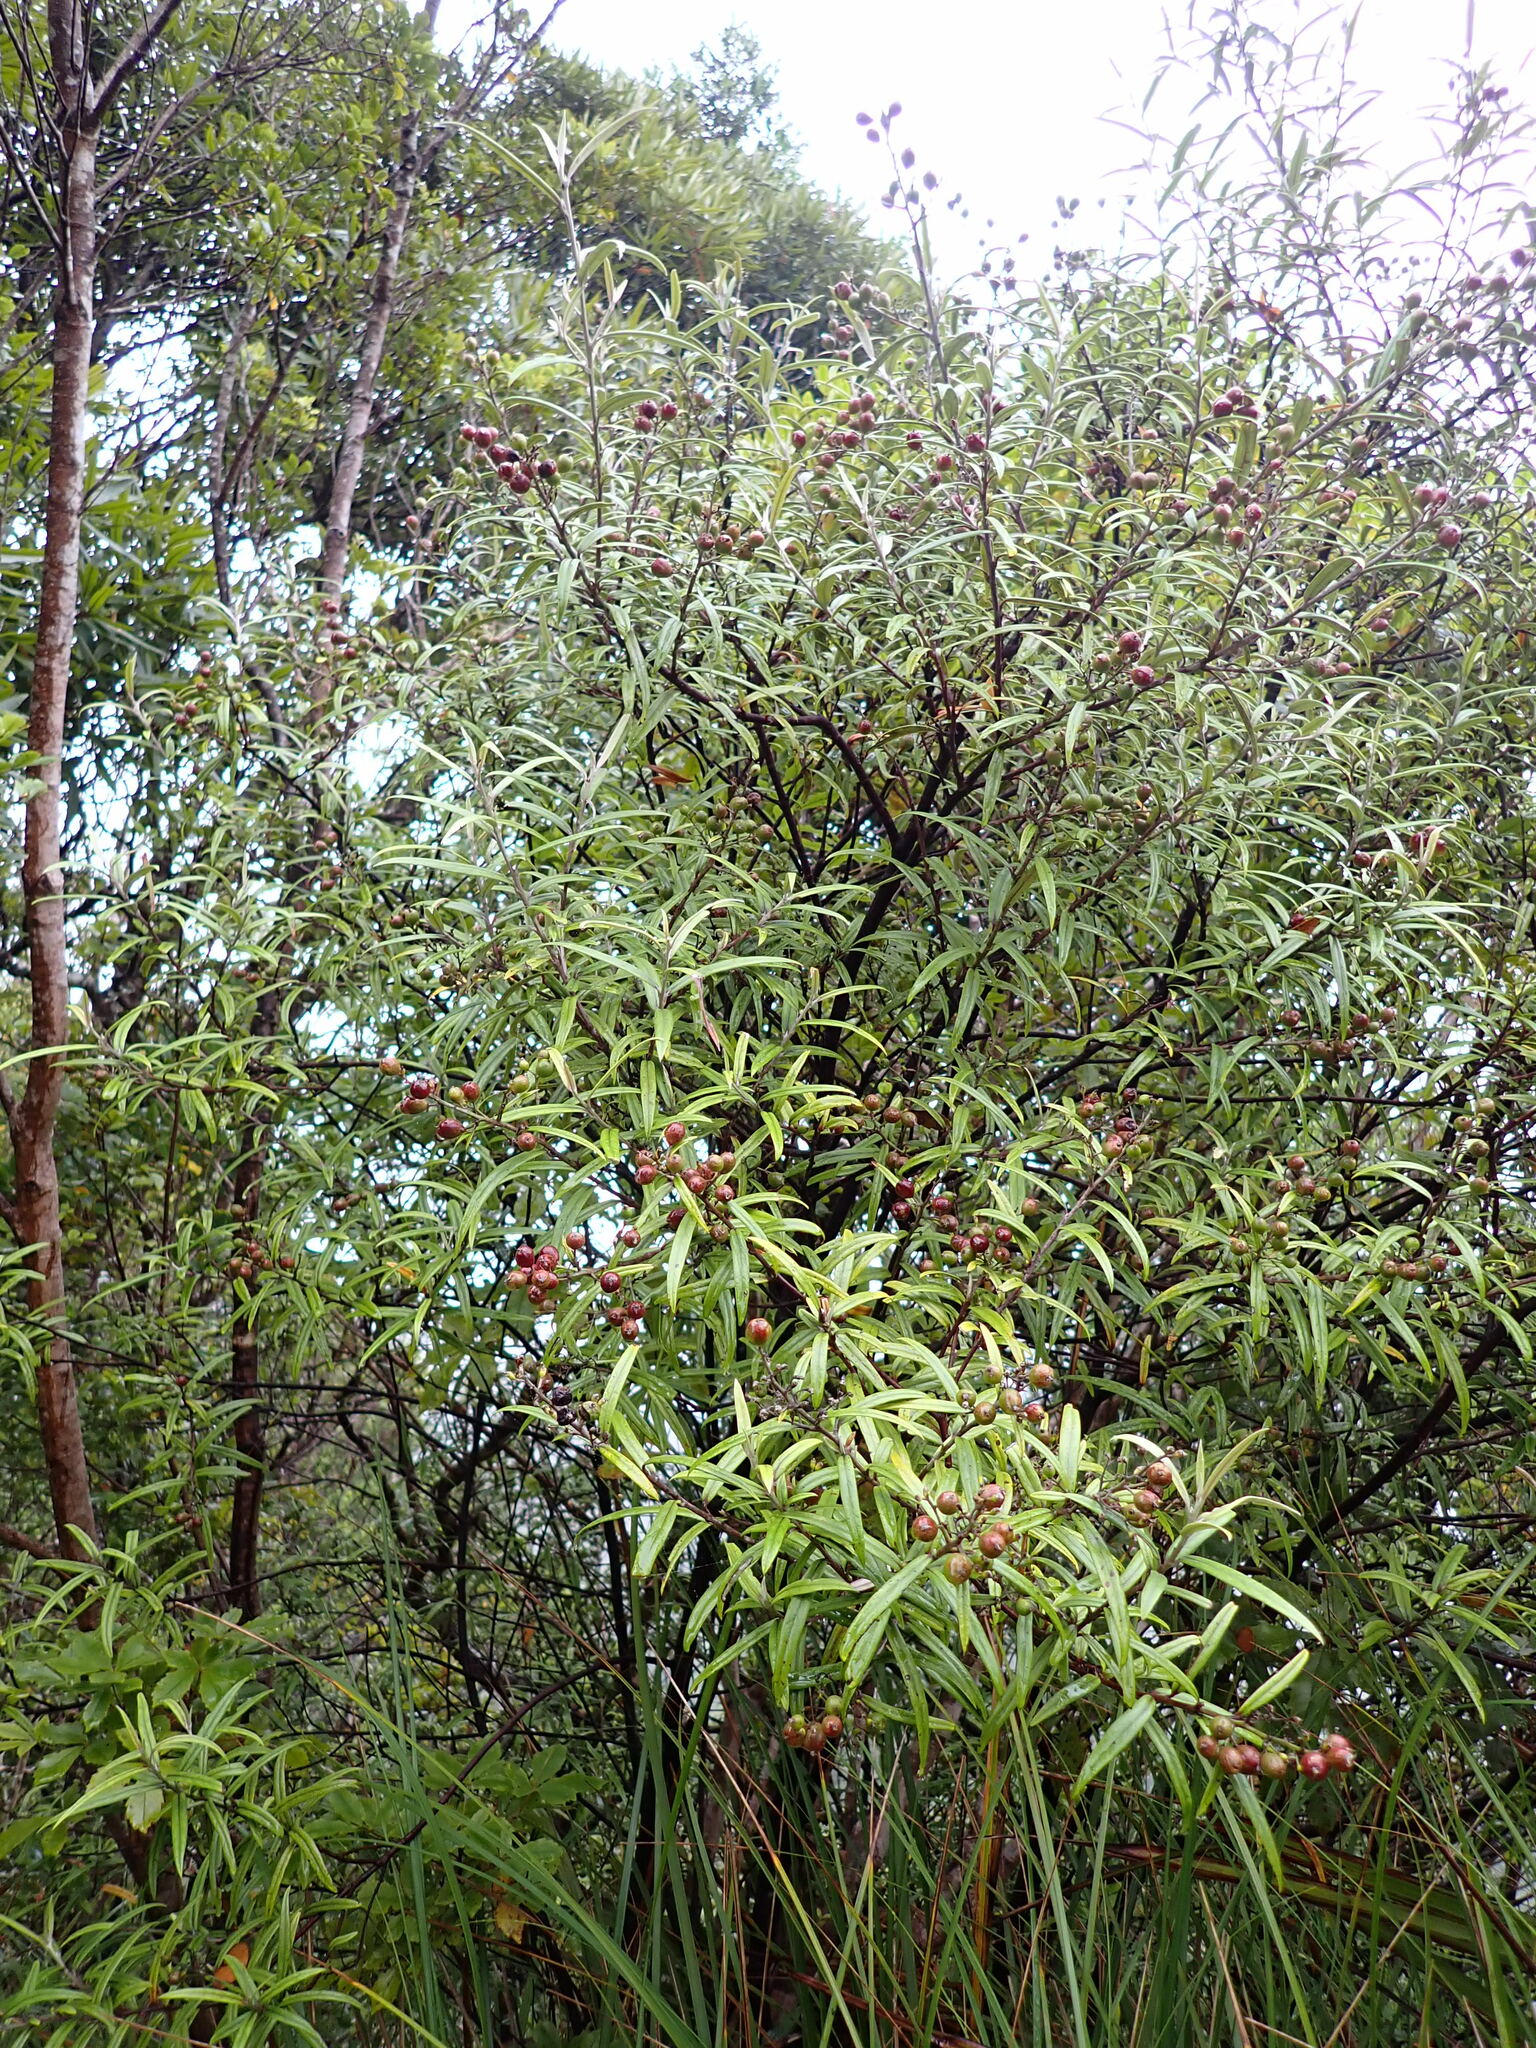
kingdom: Plantae
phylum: Tracheophyta
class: Magnoliopsida
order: Asterales
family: Argophyllaceae
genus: Corokia
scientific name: Corokia buddleioides
